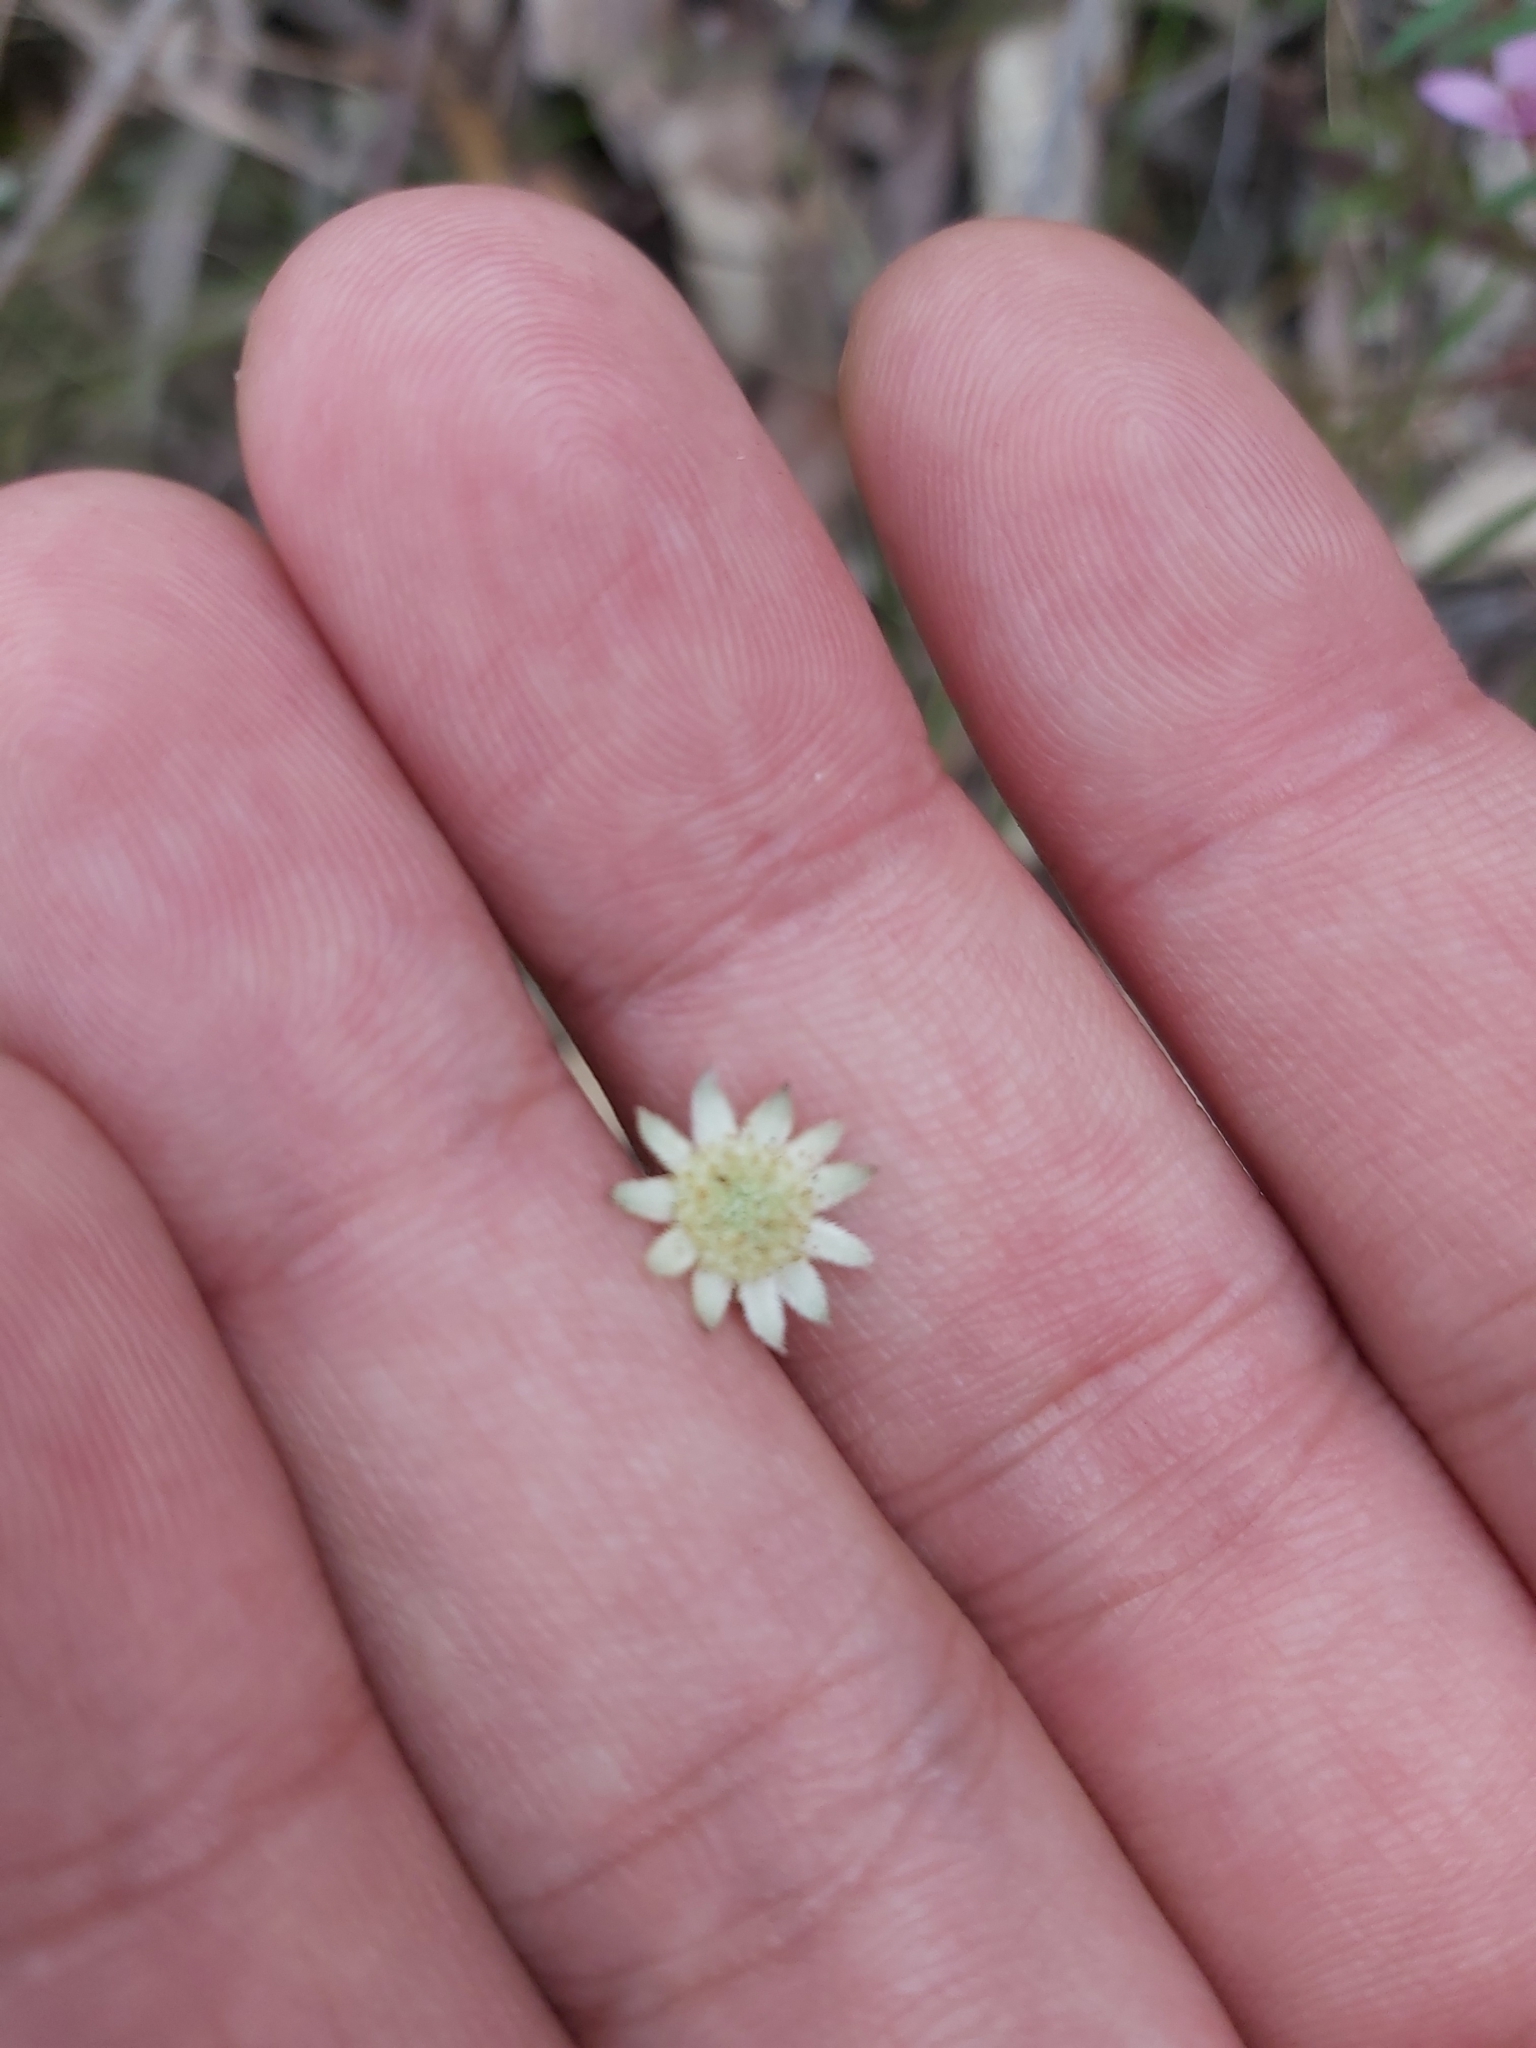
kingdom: Plantae
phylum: Tracheophyta
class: Magnoliopsida
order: Apiales
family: Apiaceae
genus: Actinotus
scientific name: Actinotus minor
